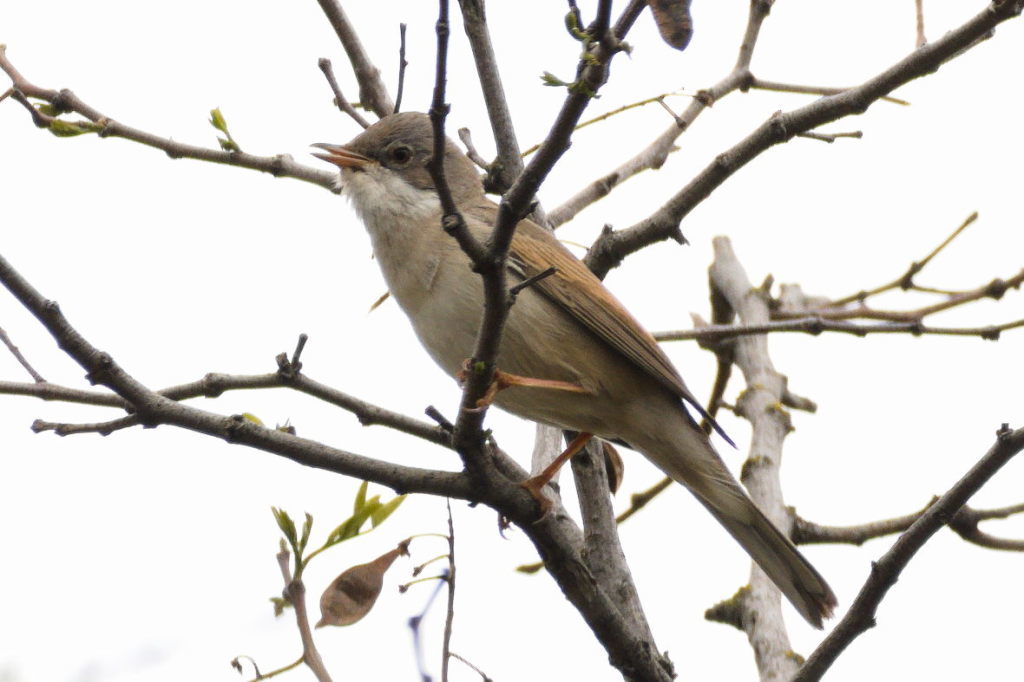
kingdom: Animalia
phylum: Chordata
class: Aves
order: Passeriformes
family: Sylviidae
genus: Sylvia
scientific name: Sylvia communis
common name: Common whitethroat
